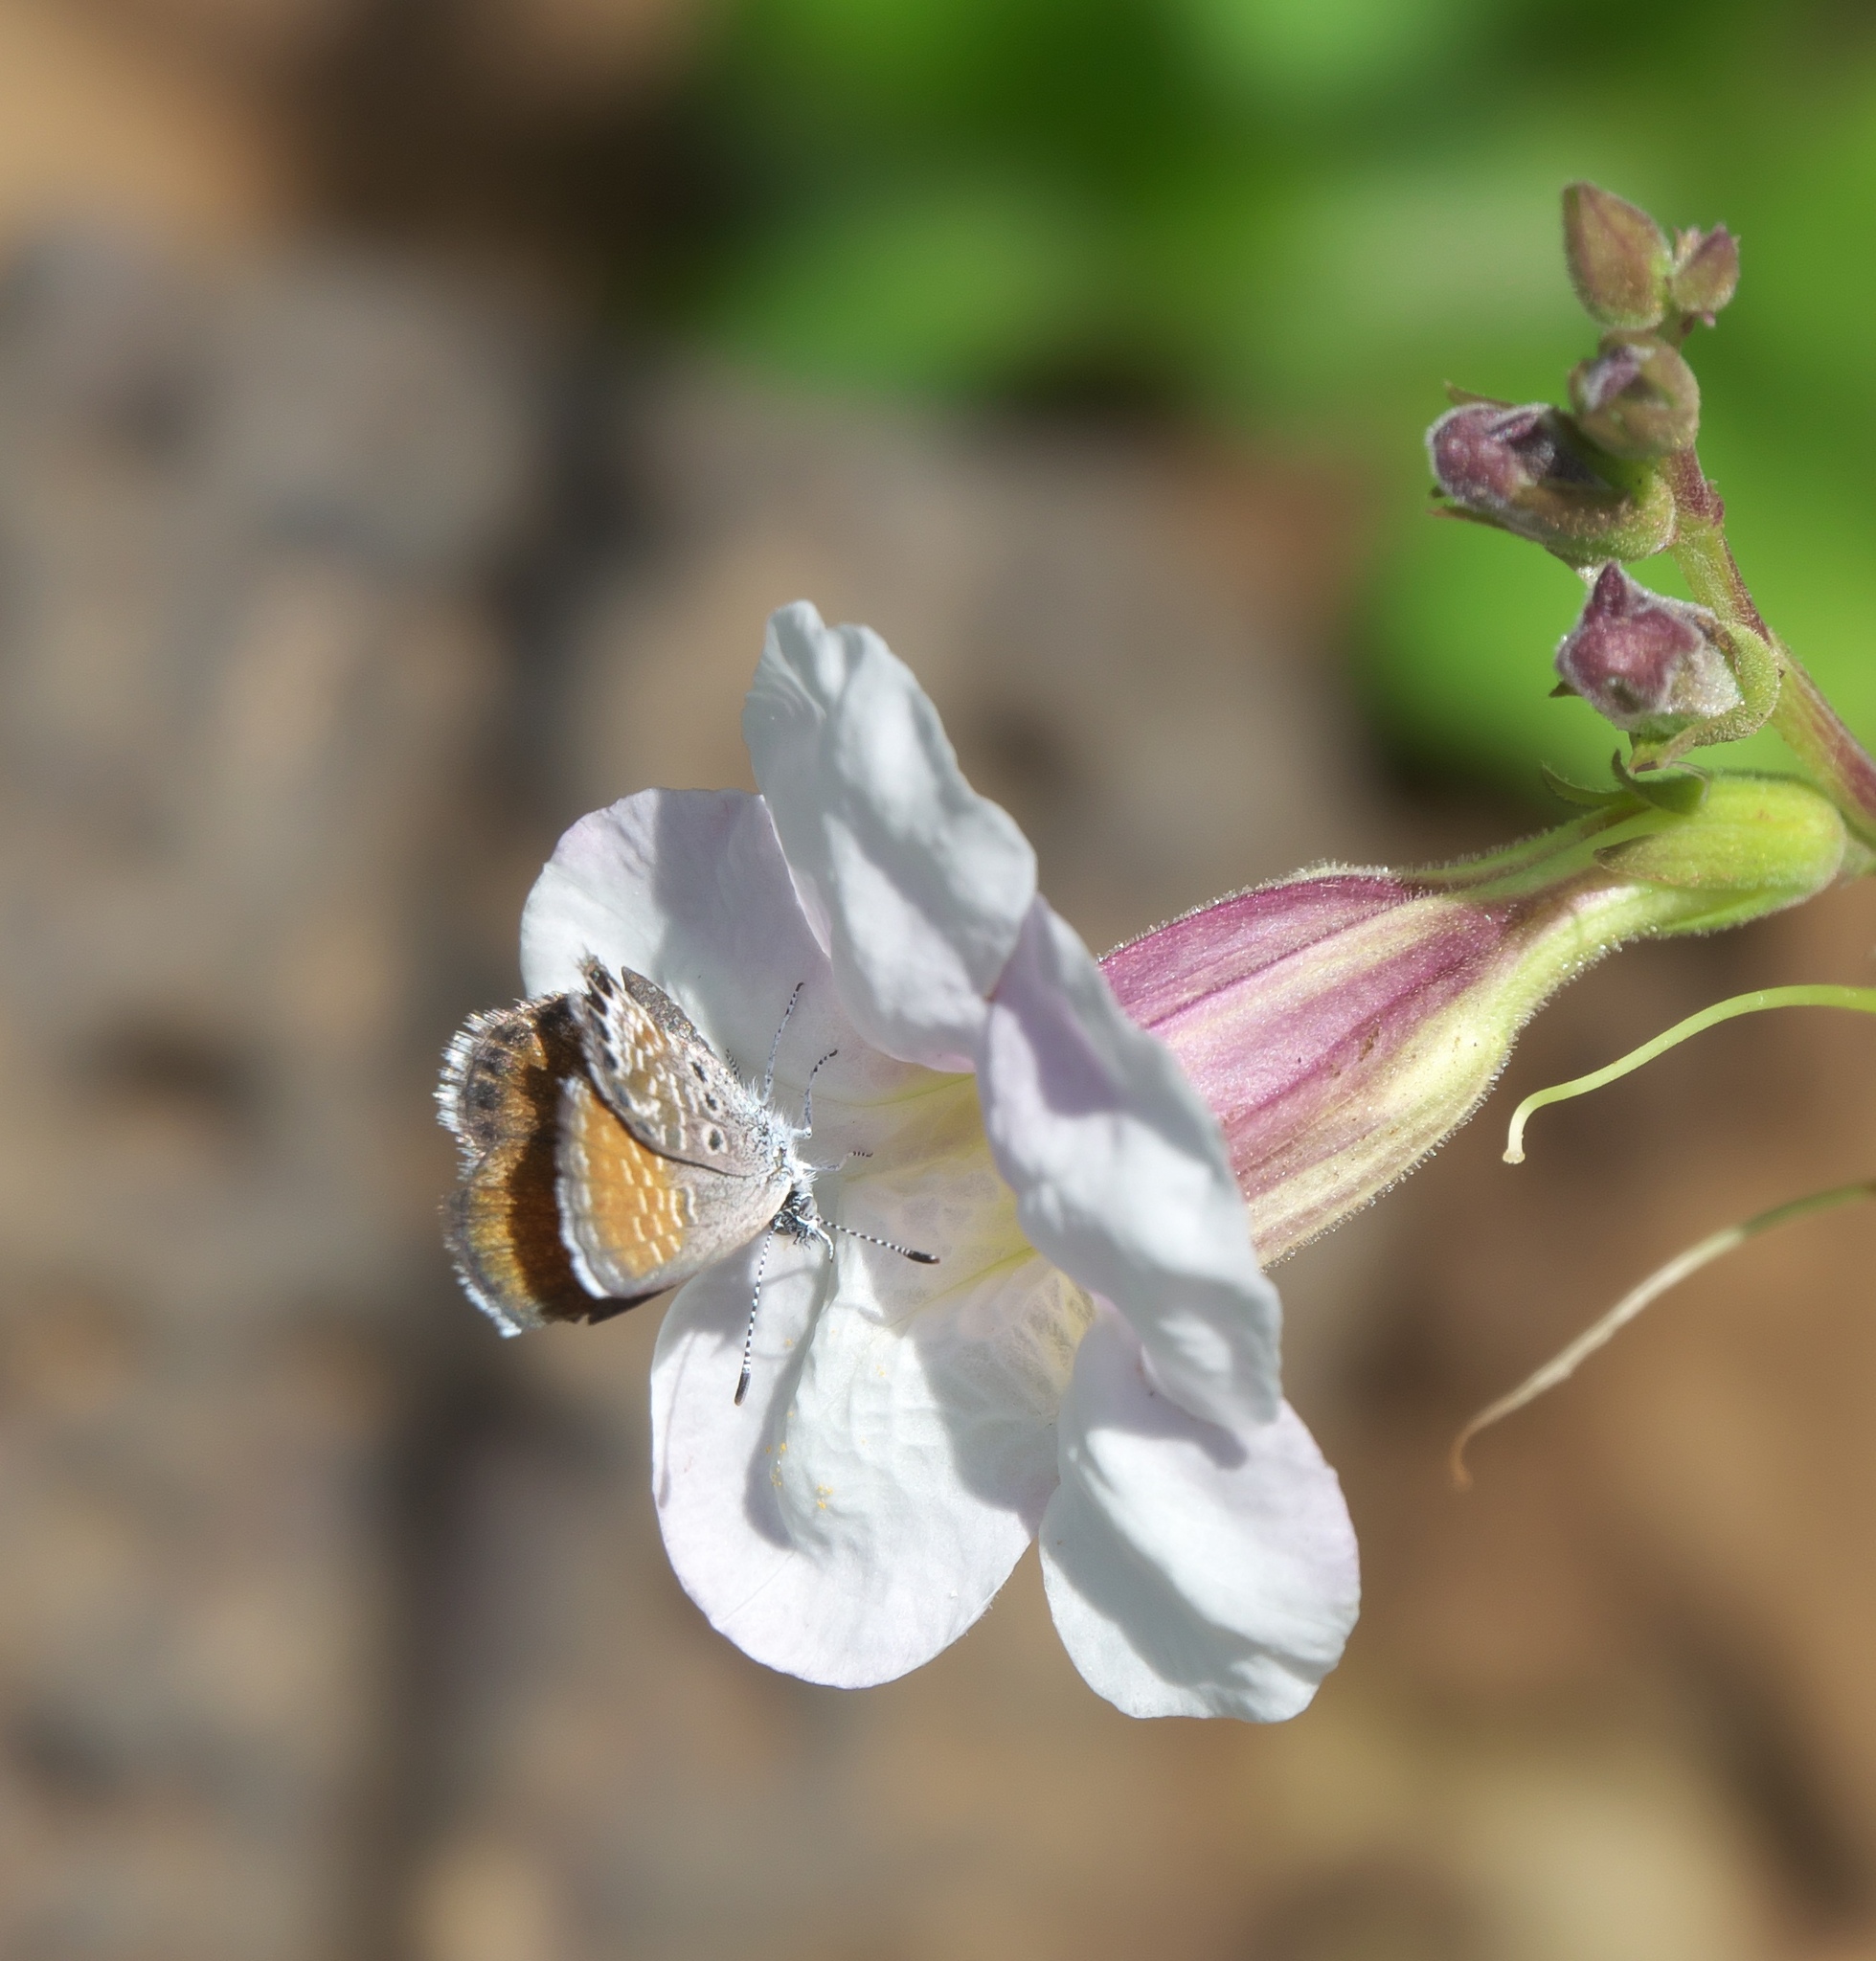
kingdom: Animalia
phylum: Arthropoda
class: Insecta
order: Lepidoptera
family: Lycaenidae
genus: Brephidium
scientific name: Brephidium exilis
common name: Pygmy blue
